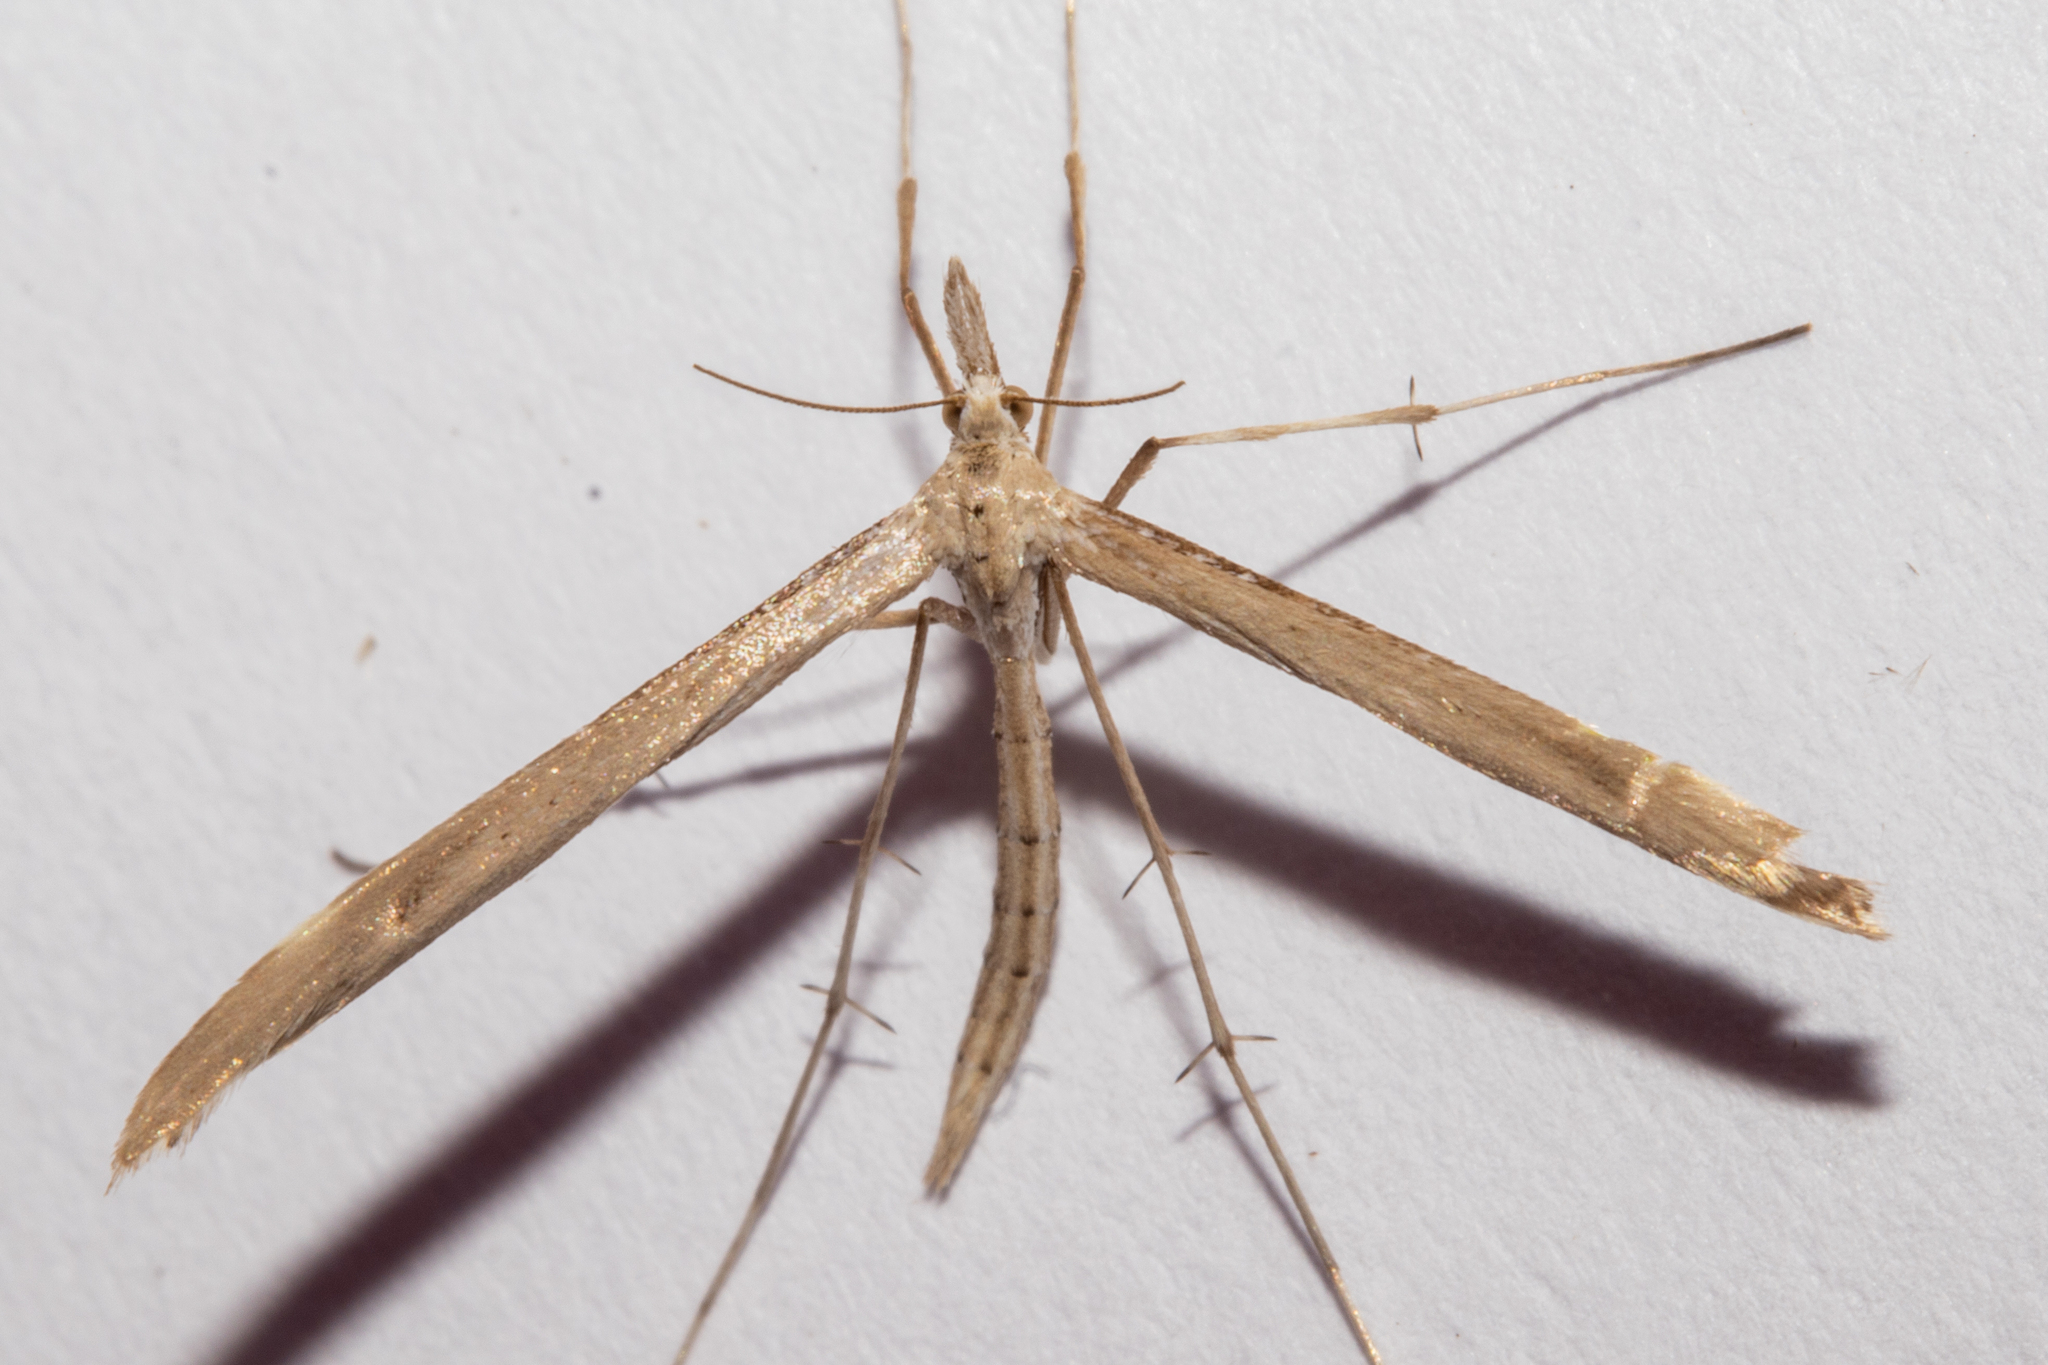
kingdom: Animalia
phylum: Arthropoda
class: Insecta
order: Lepidoptera
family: Pterophoridae
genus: Stenoptilia
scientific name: Stenoptilia orites
